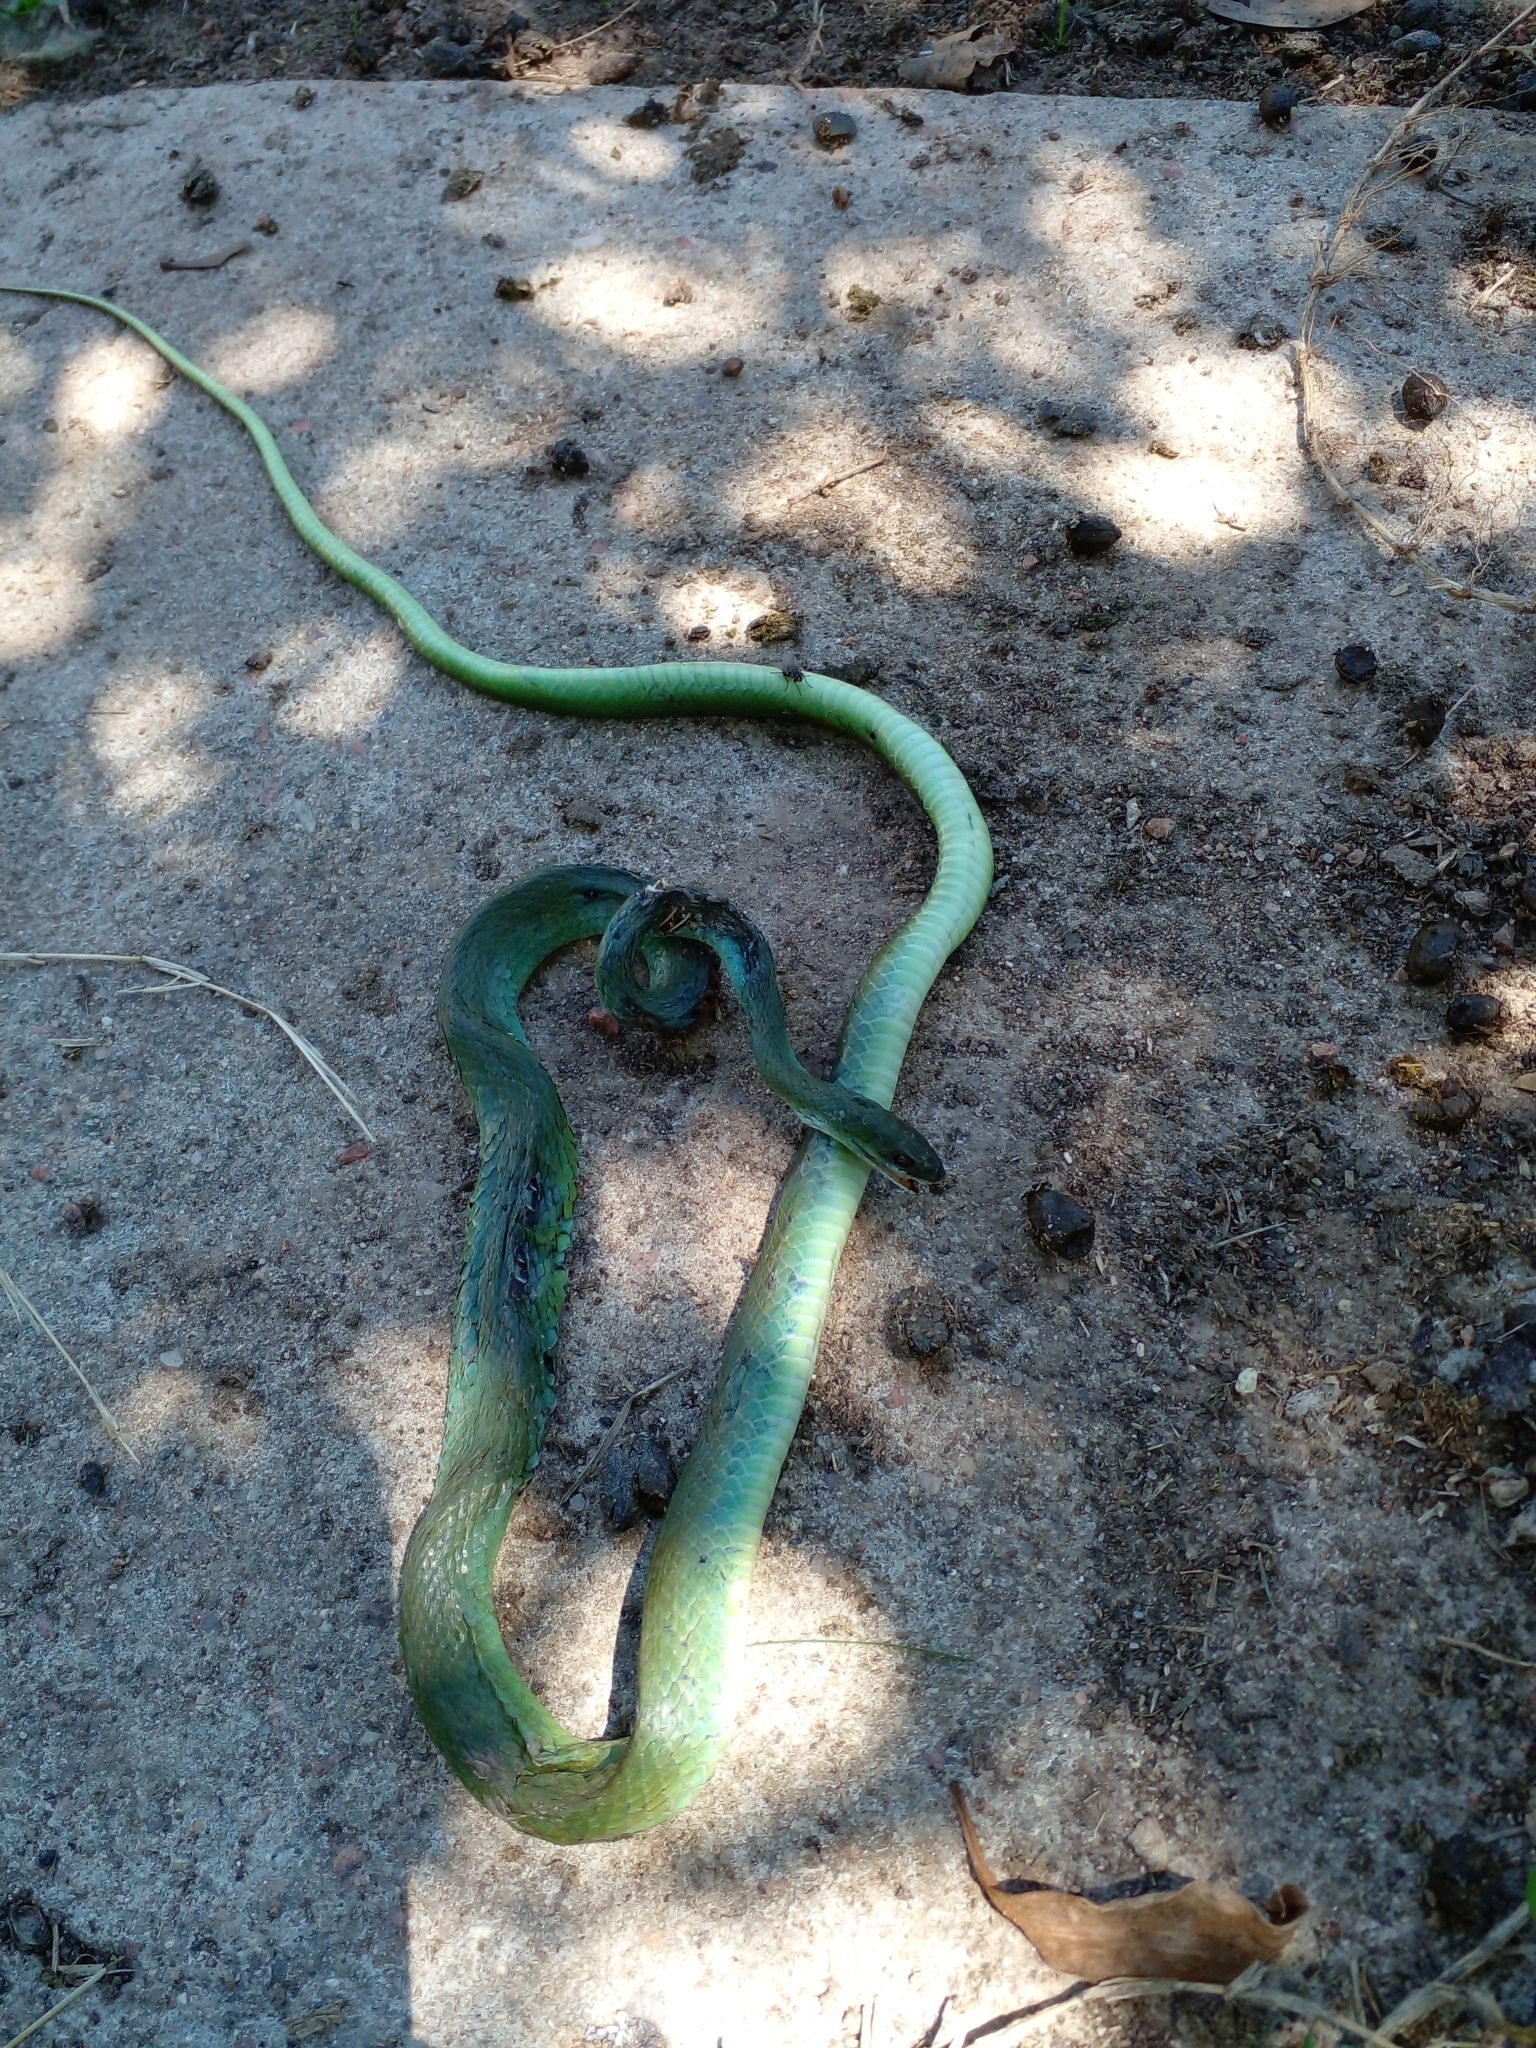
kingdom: Animalia
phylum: Chordata
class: Squamata
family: Colubridae
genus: Philodryas
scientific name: Philodryas aestiva
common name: Brazilian green racer
